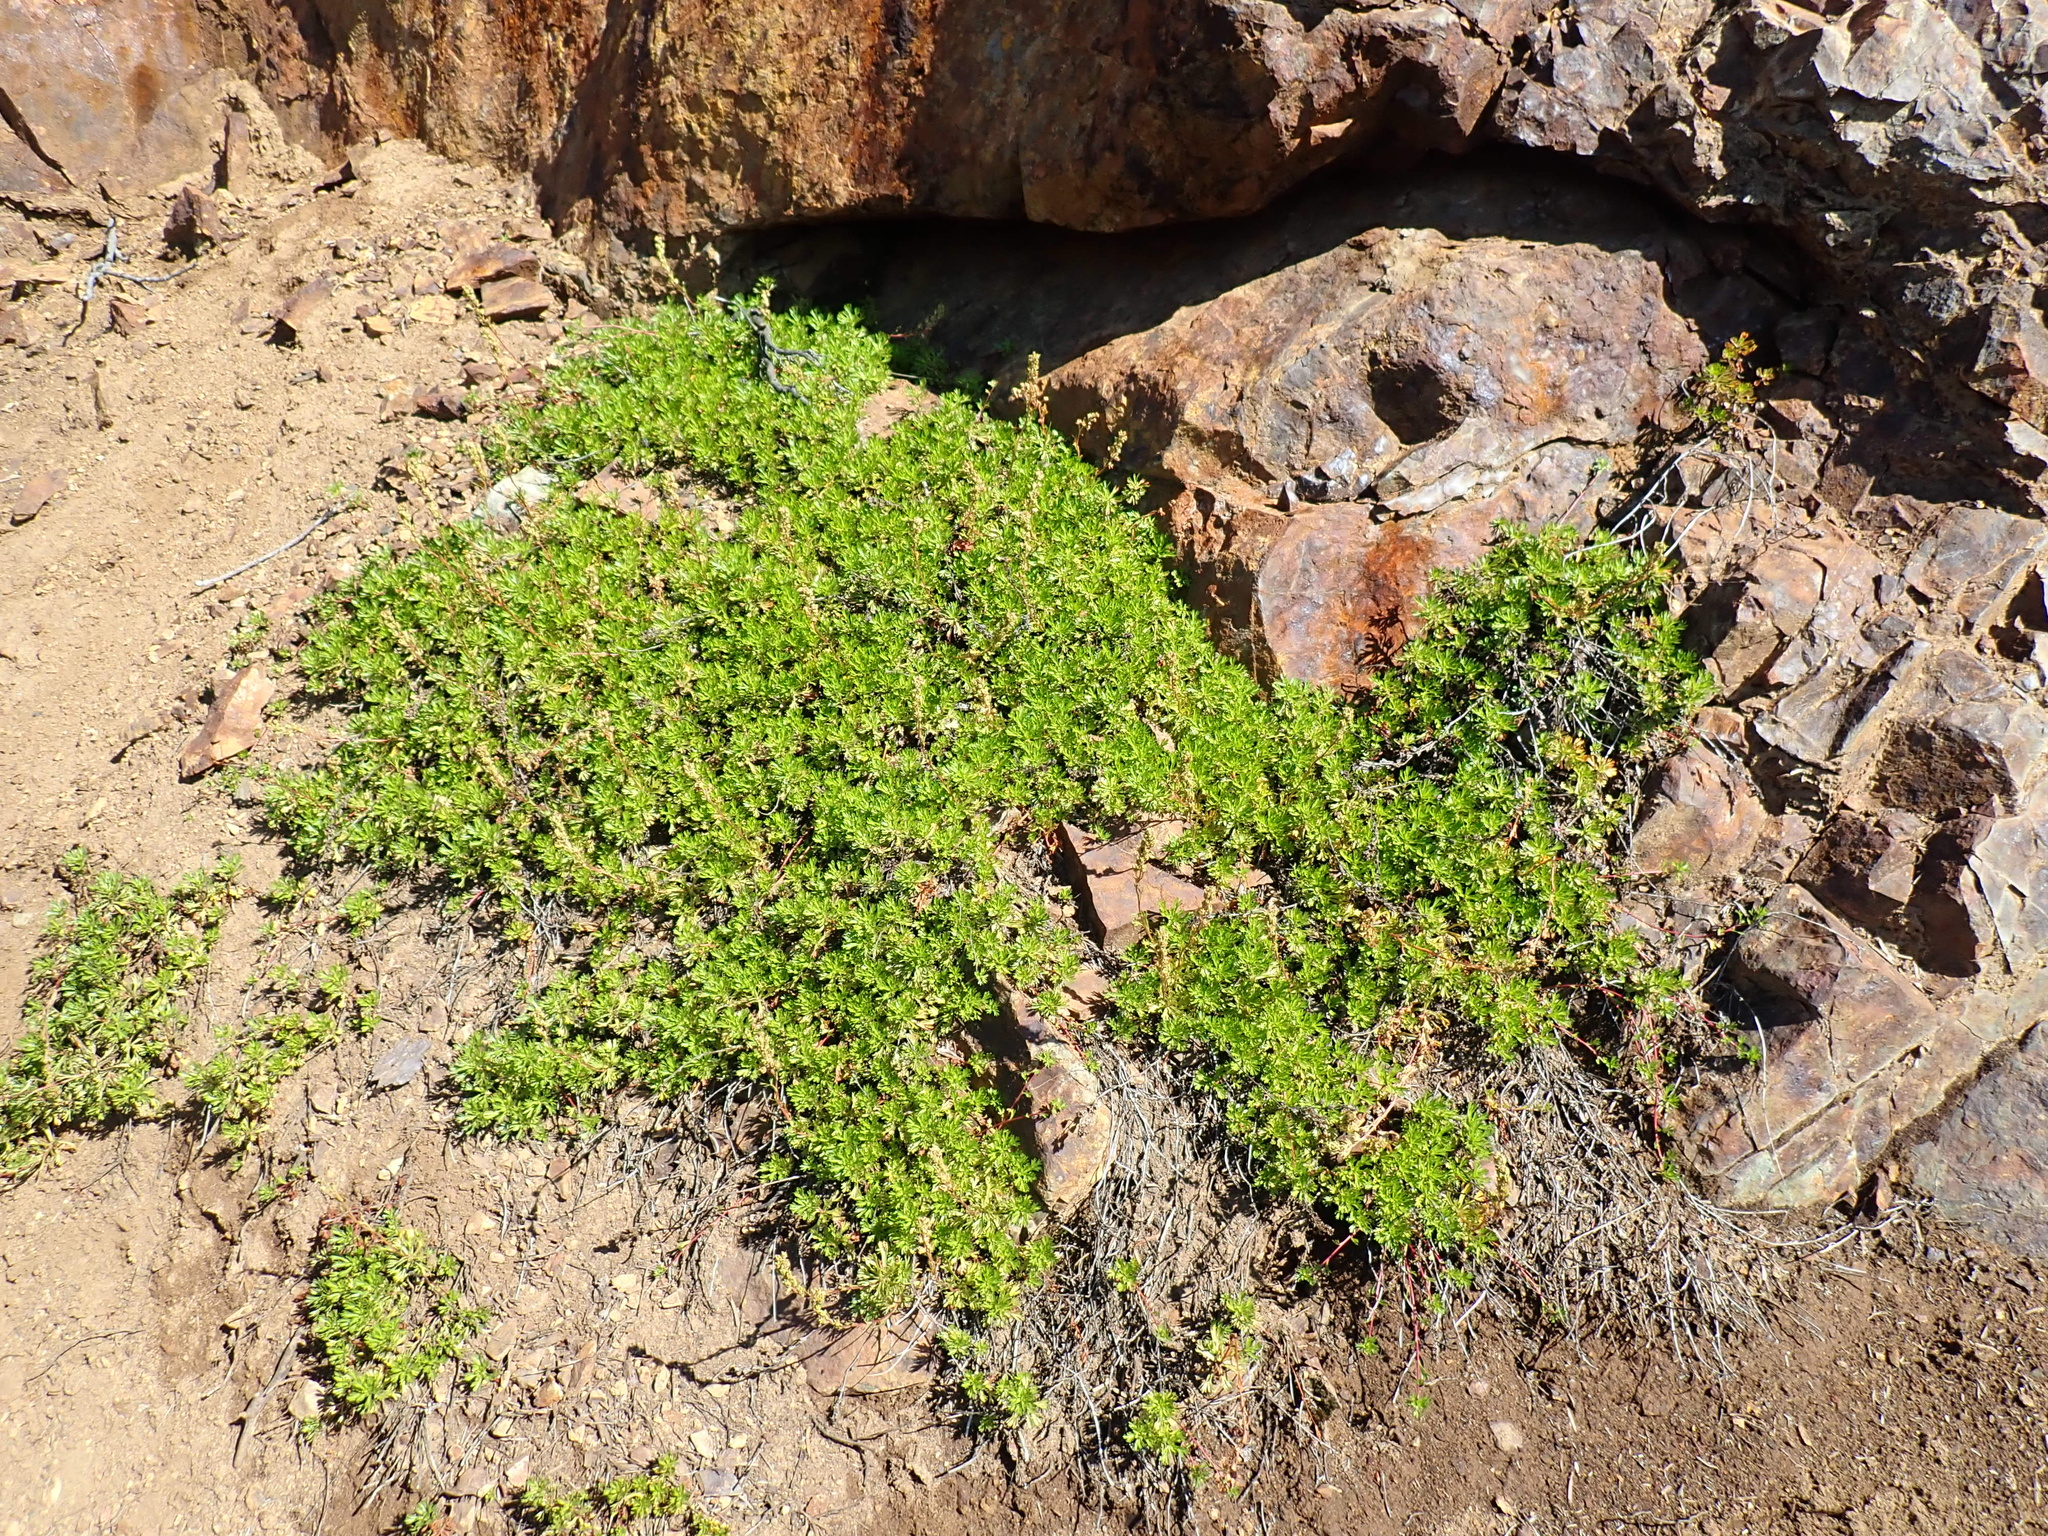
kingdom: Plantae
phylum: Tracheophyta
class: Magnoliopsida
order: Rosales
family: Rosaceae
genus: Luetkea
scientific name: Luetkea pectinata
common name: Partridgefoot
